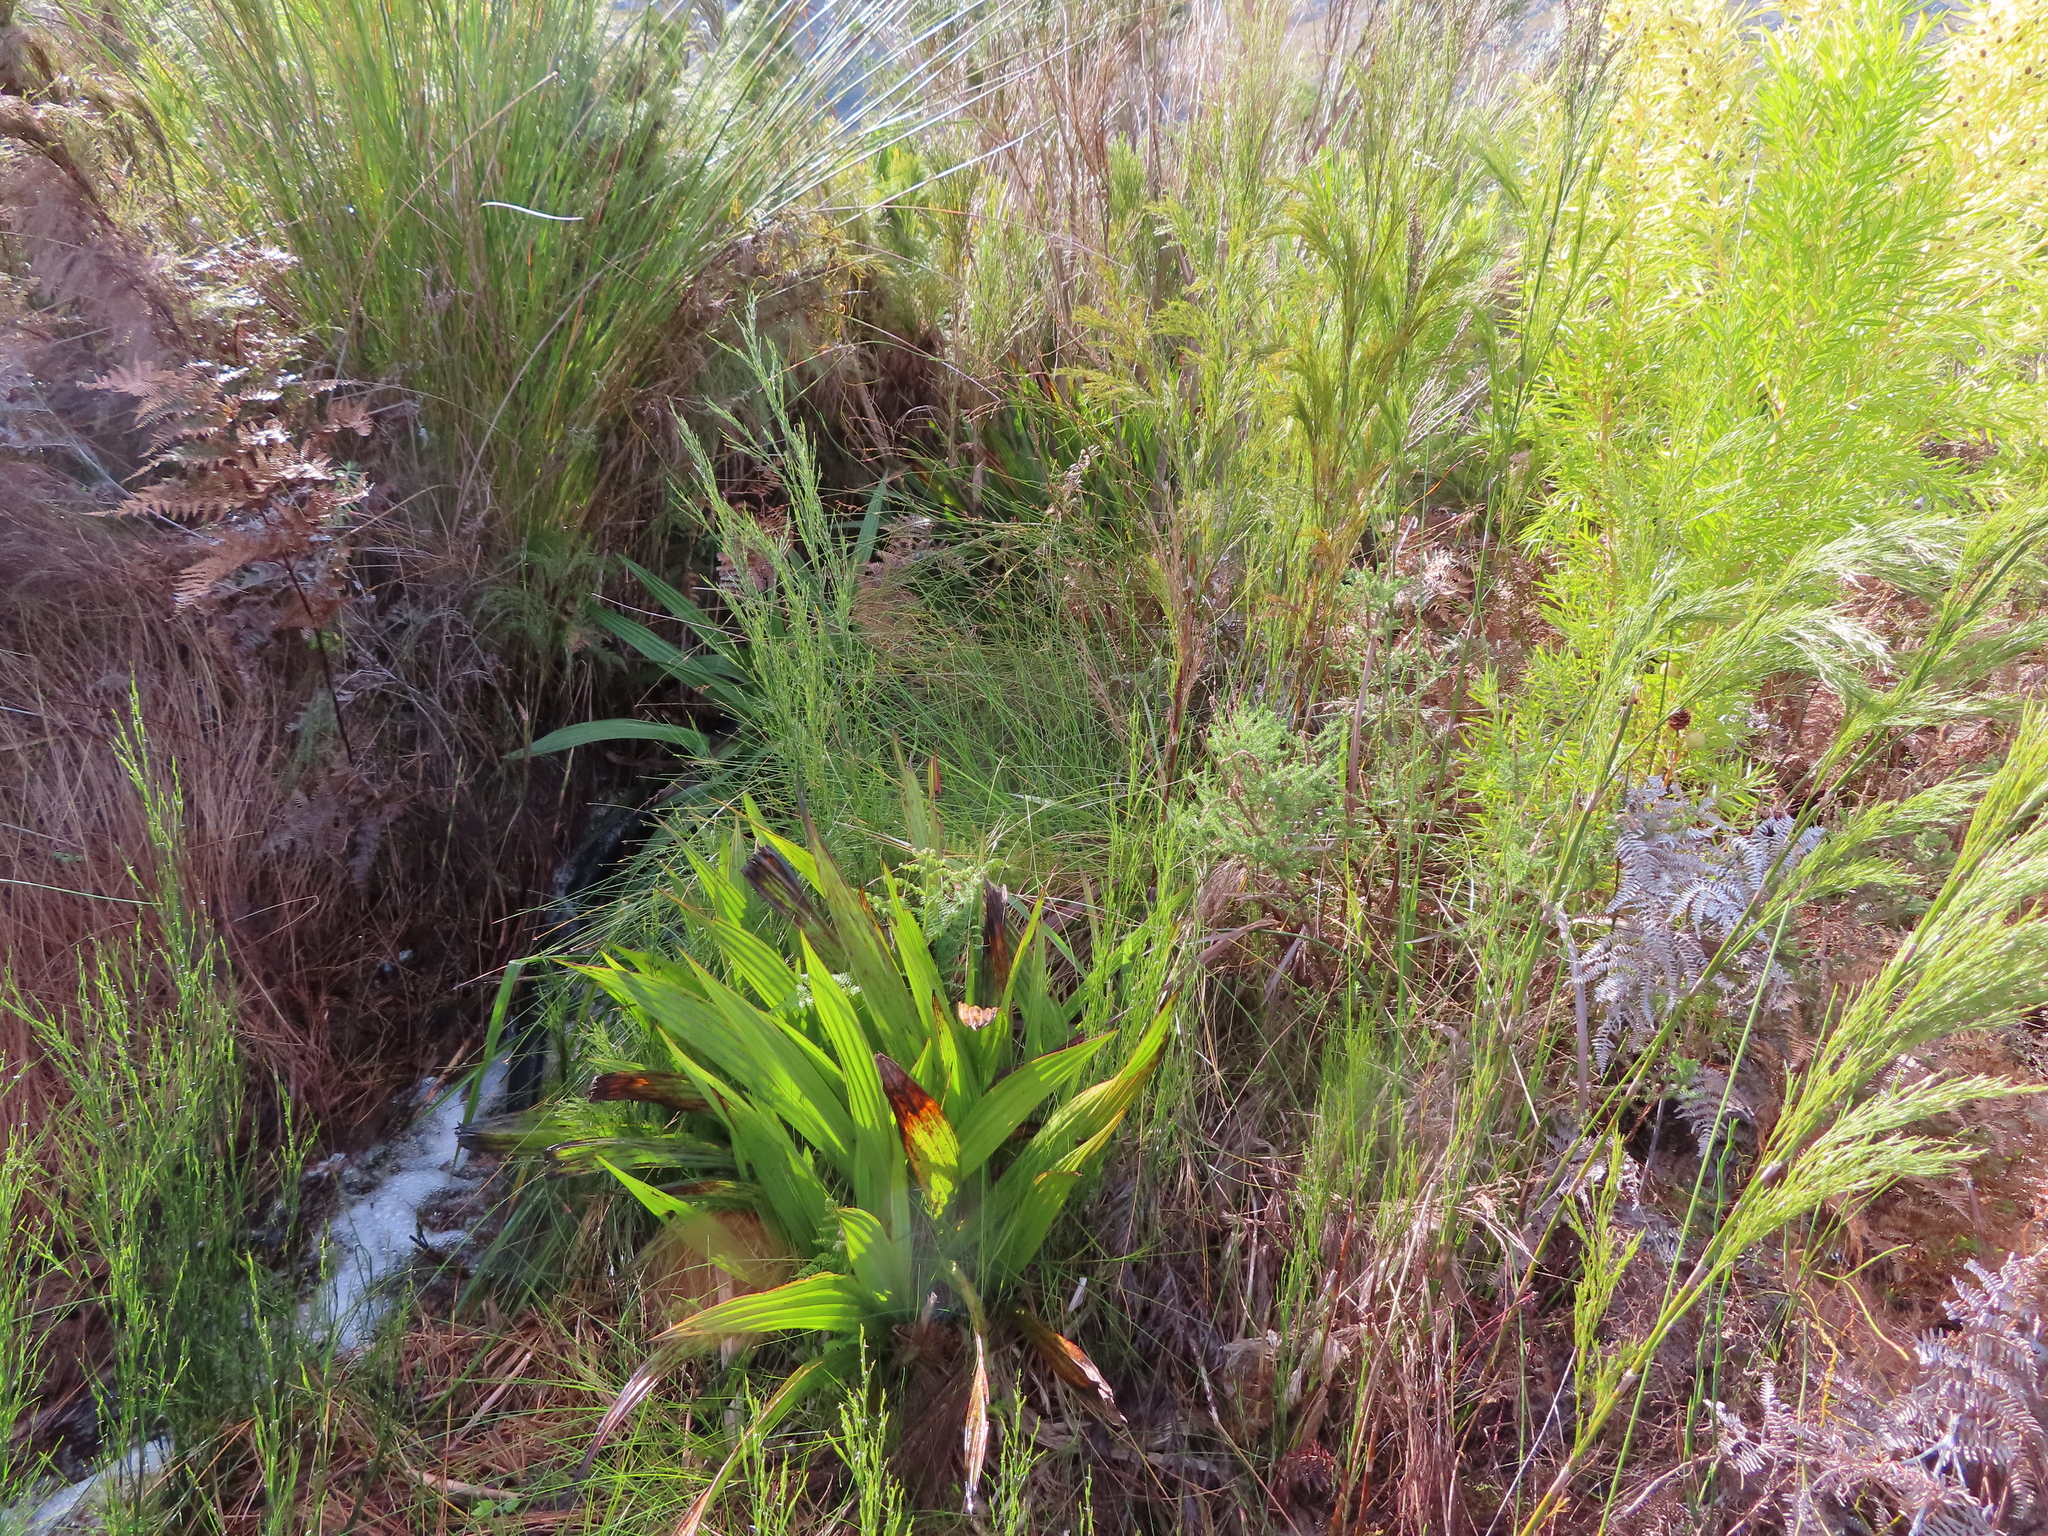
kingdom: Plantae
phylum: Tracheophyta
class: Liliopsida
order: Commelinales
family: Haemodoraceae
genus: Wachendorfia
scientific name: Wachendorfia thyrsiflora
